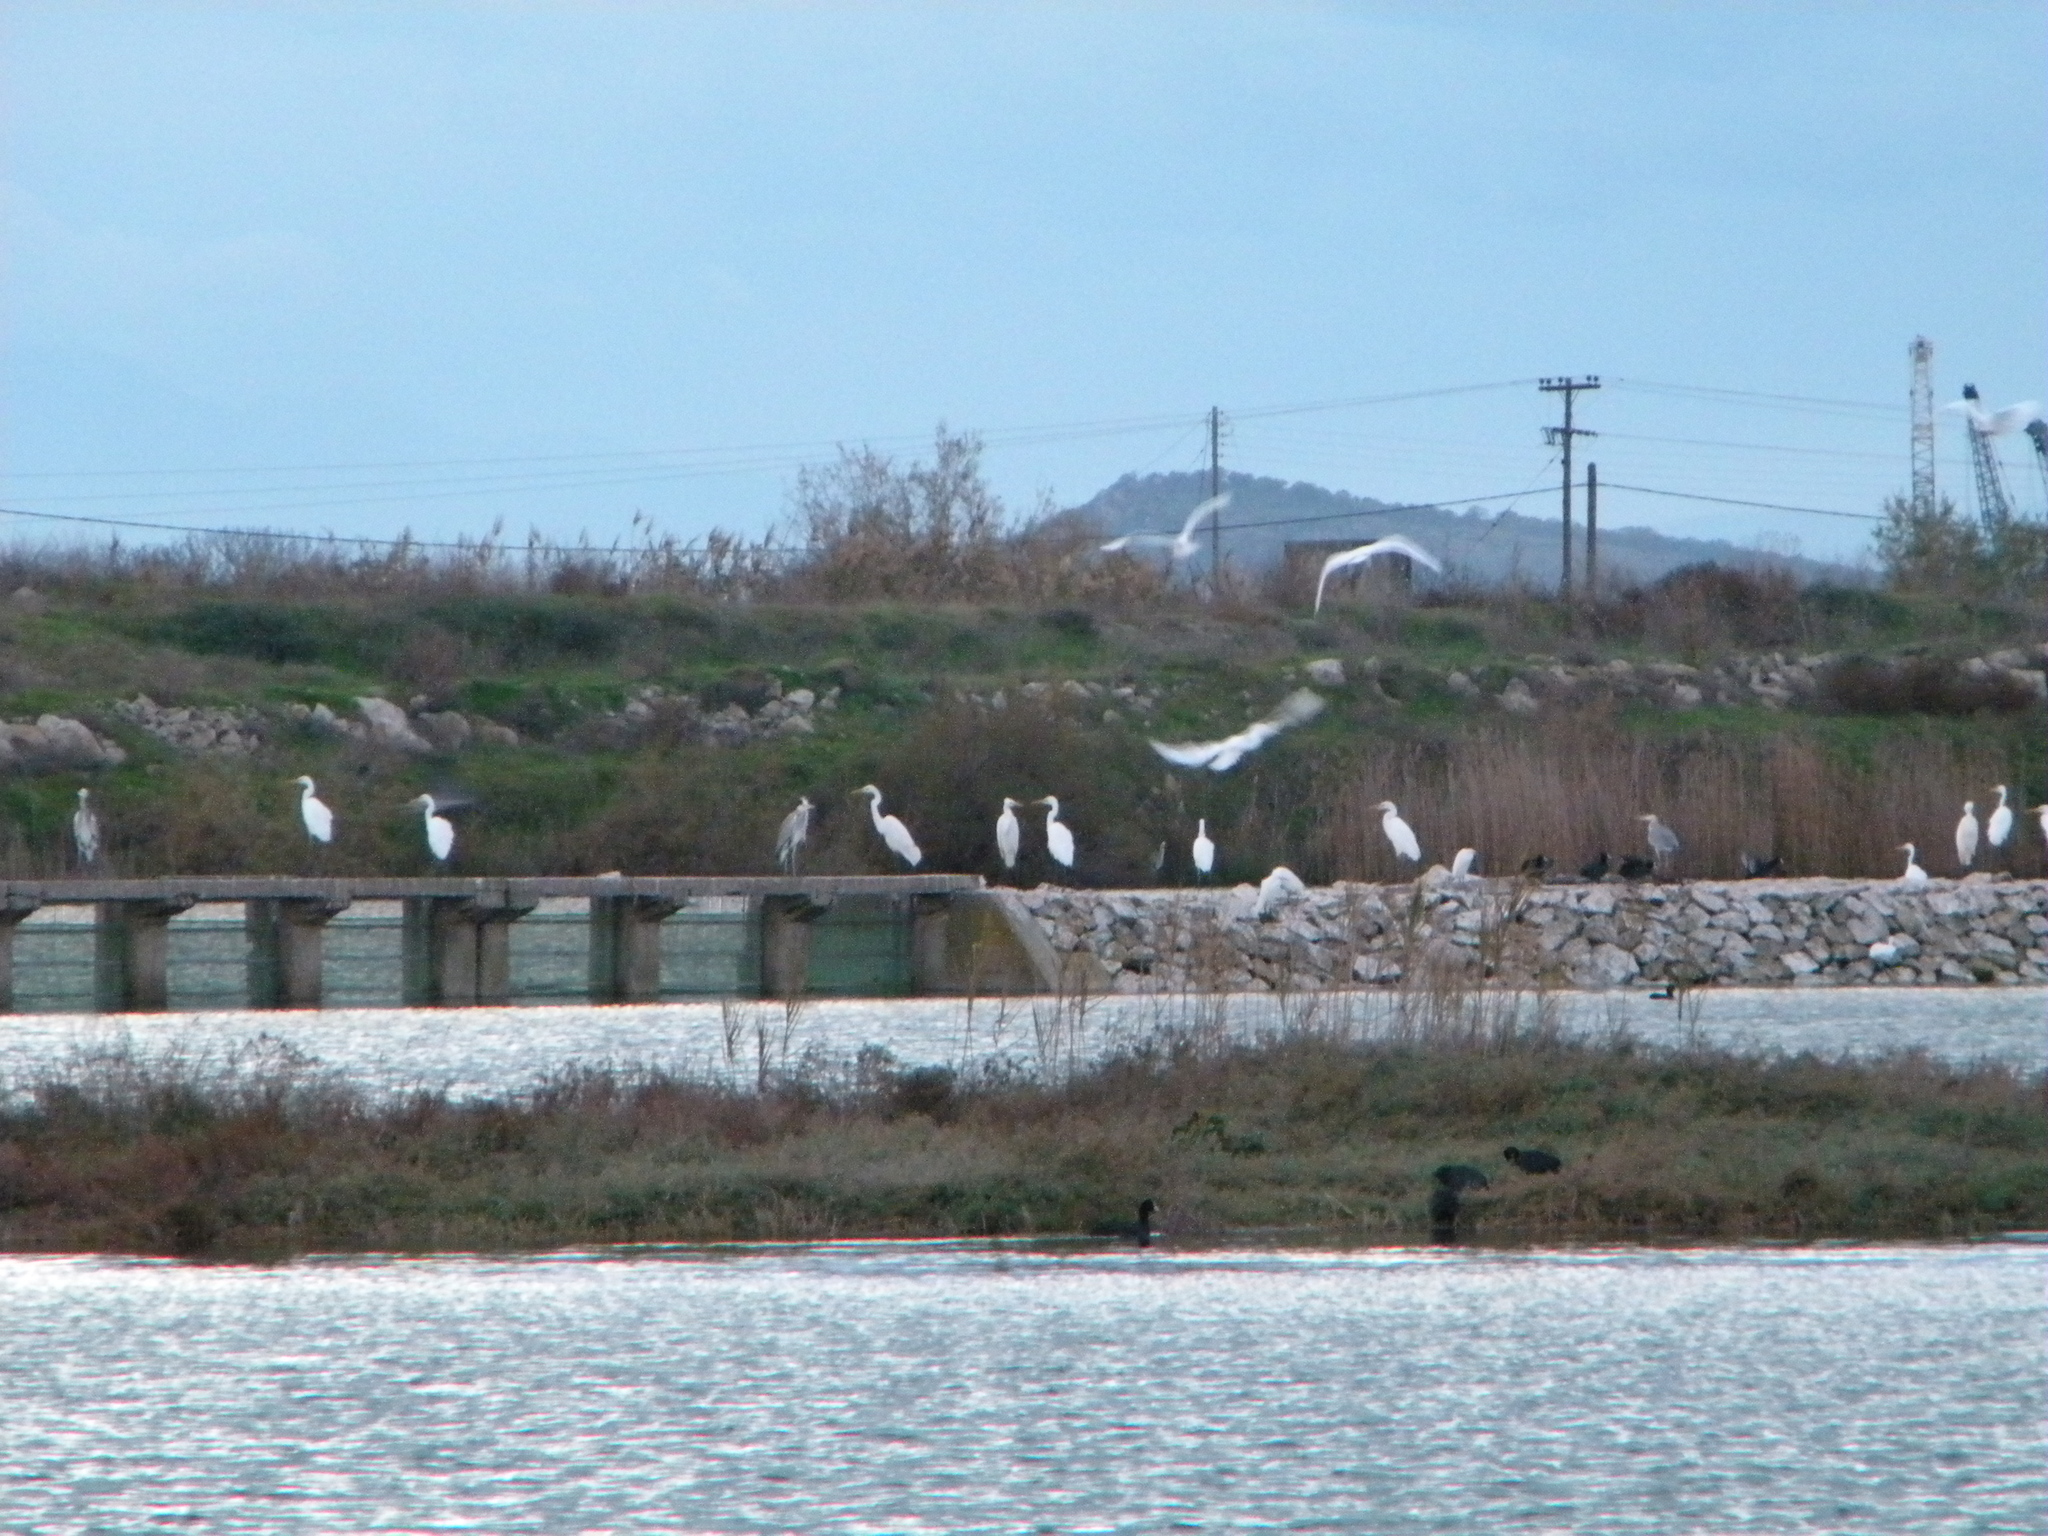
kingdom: Animalia
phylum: Chordata
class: Aves
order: Pelecaniformes
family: Ardeidae
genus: Ardea
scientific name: Ardea alba
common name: Great egret
